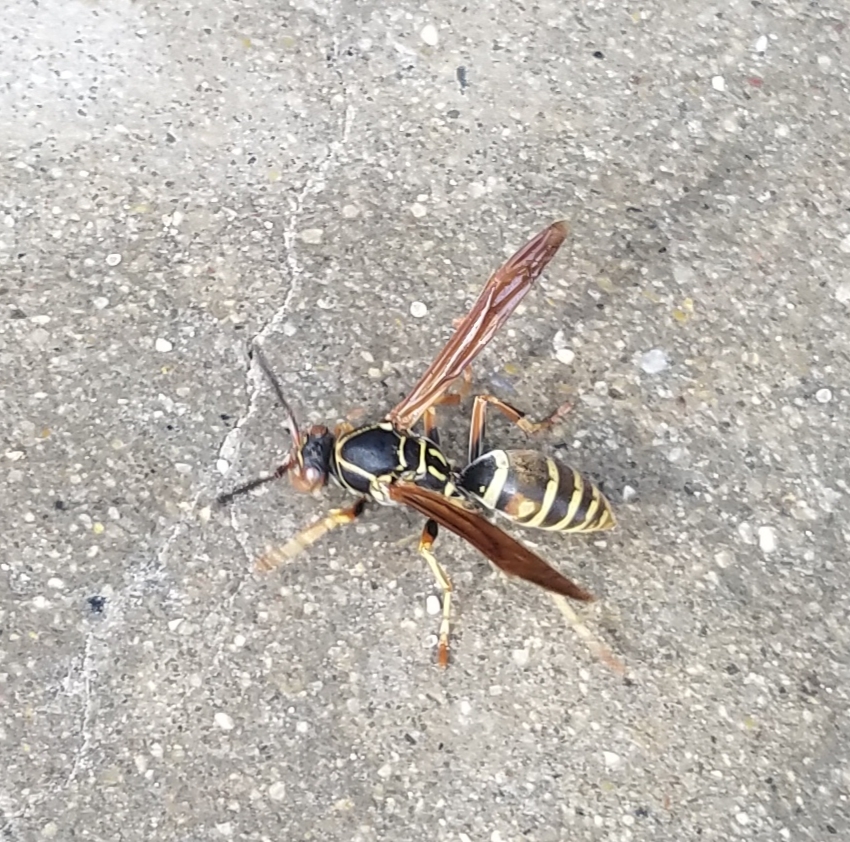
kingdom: Animalia
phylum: Arthropoda
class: Insecta
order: Hymenoptera
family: Eumenidae
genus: Polistes
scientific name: Polistes fuscatus
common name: Dark paper wasp
